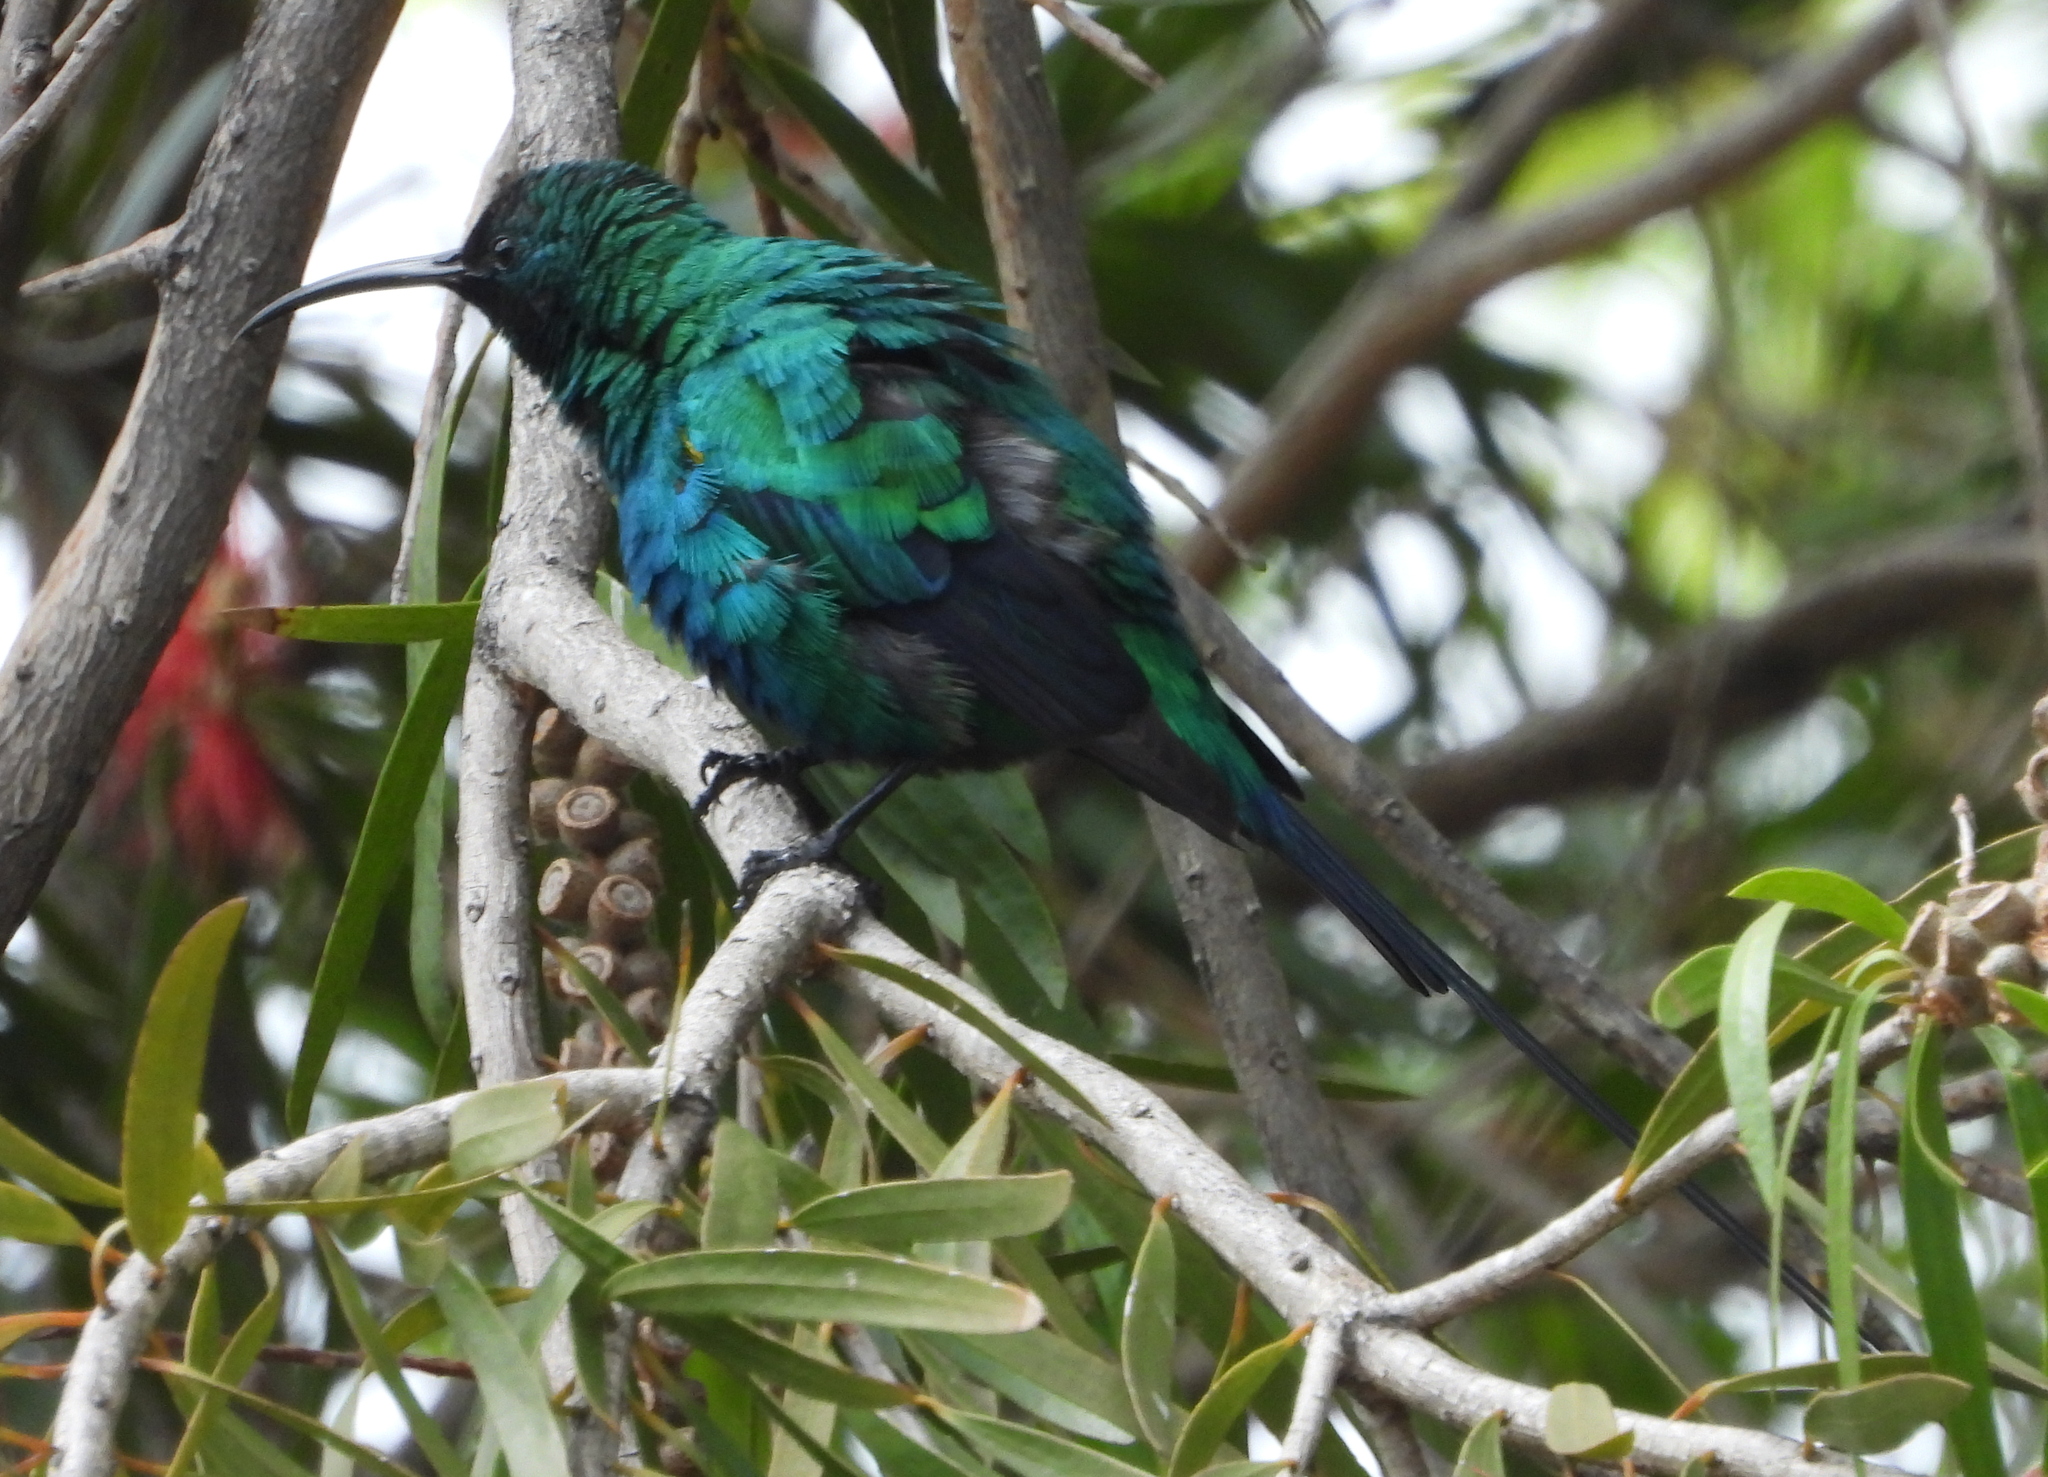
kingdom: Animalia
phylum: Chordata
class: Aves
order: Passeriformes
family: Nectariniidae
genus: Nectarinia
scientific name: Nectarinia famosa
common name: Malachite sunbird
